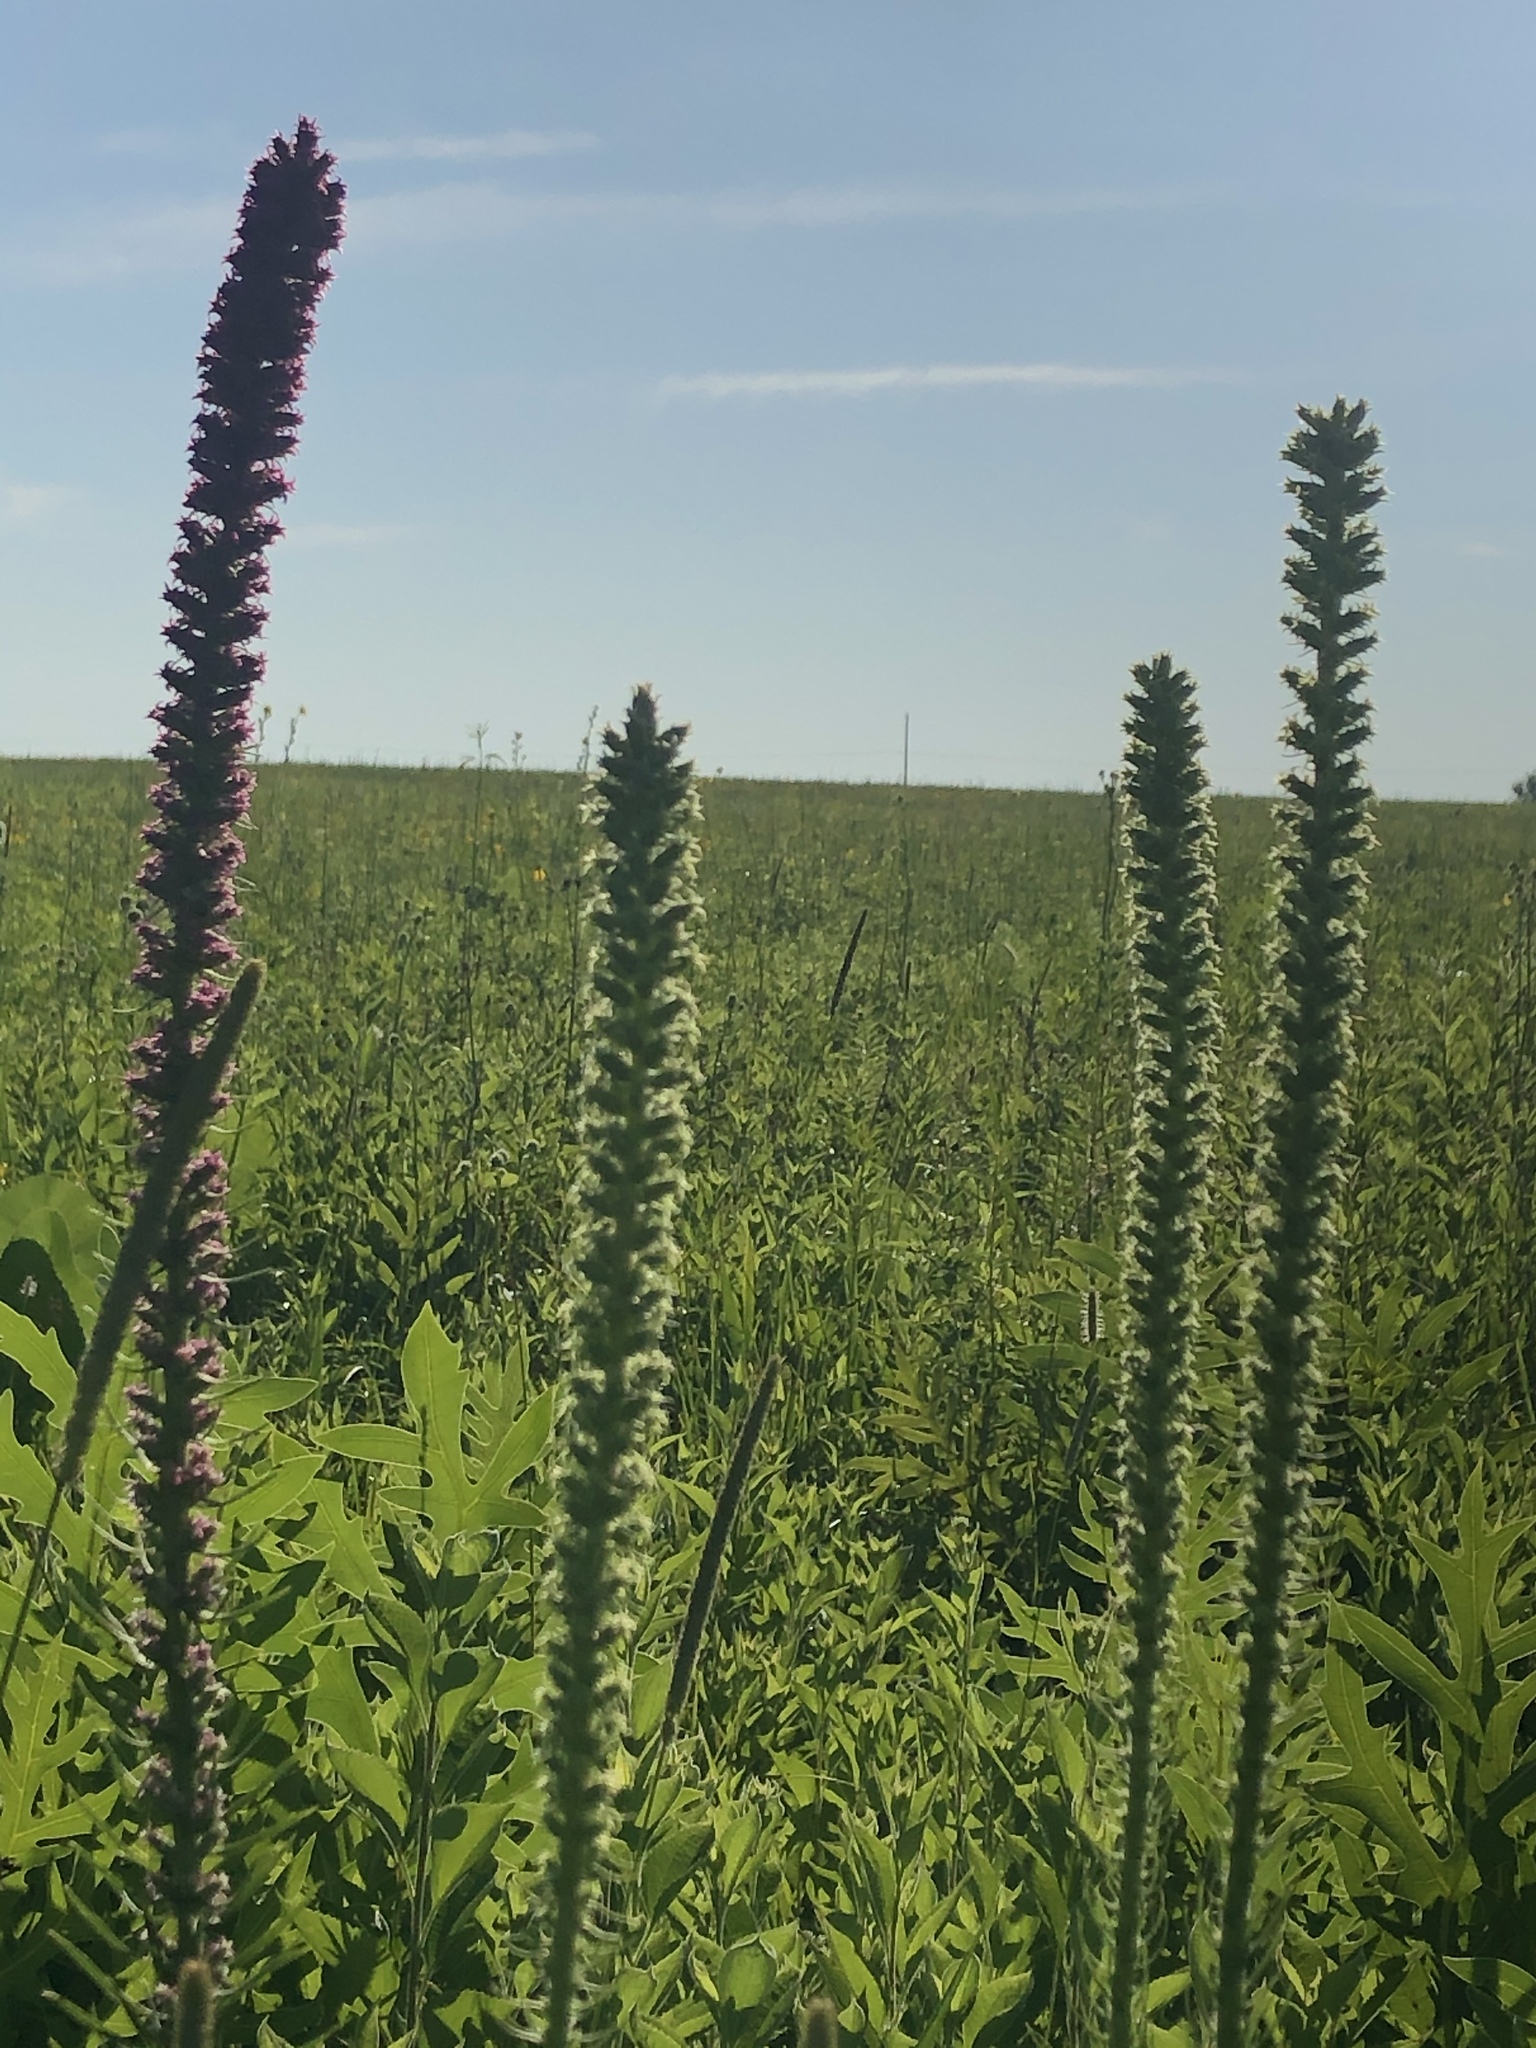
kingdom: Plantae
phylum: Tracheophyta
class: Magnoliopsida
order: Asterales
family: Asteraceae
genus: Liatris
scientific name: Liatris pycnostachya
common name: Cattail gayfeather
